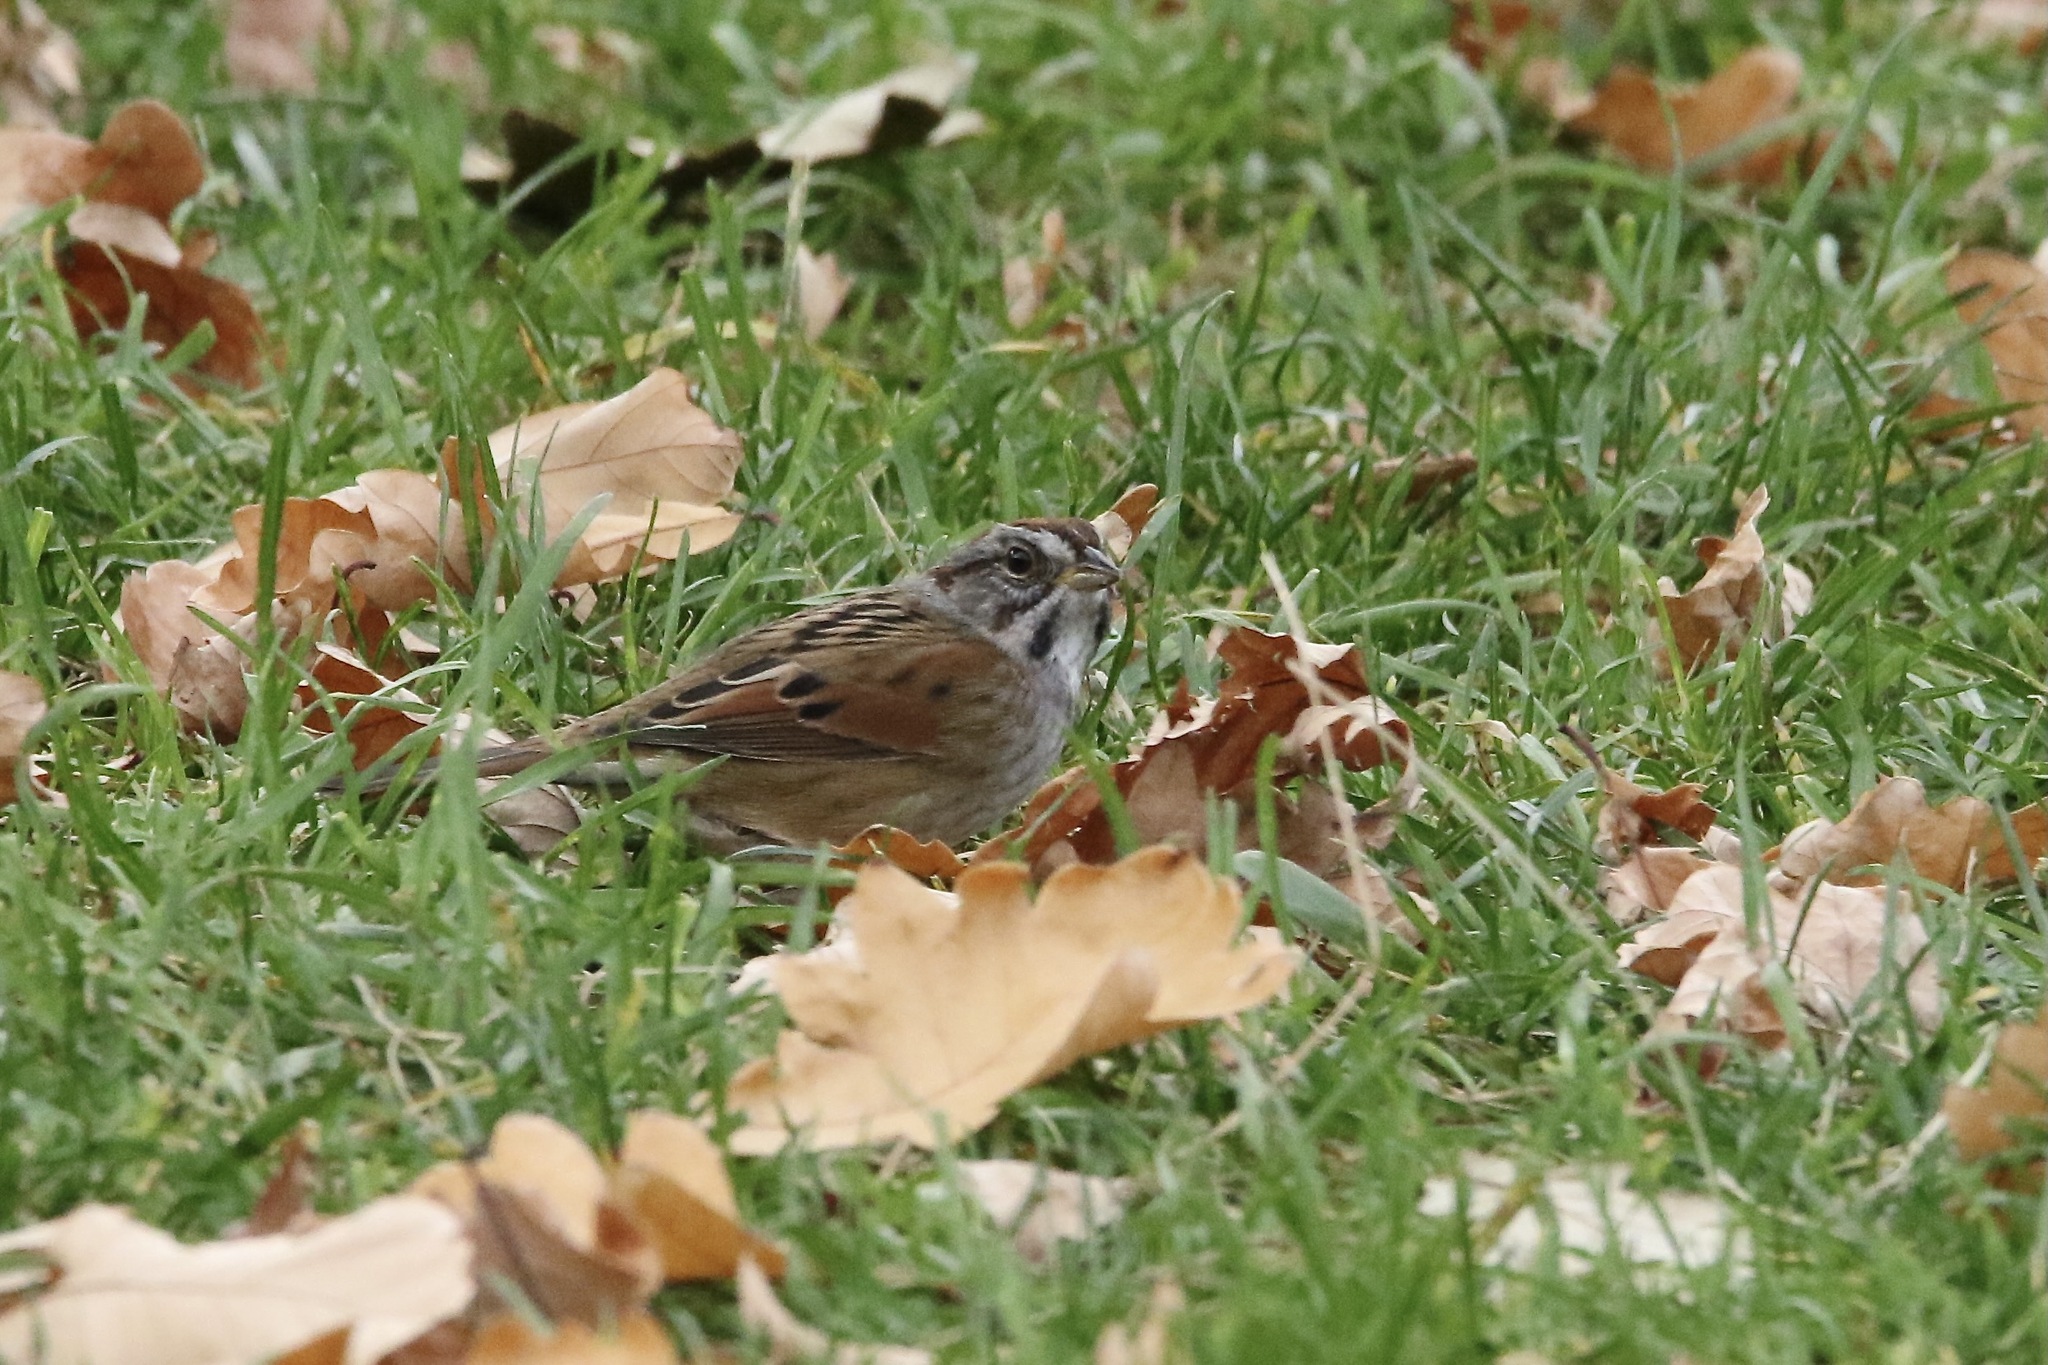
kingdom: Animalia
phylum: Chordata
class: Aves
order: Passeriformes
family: Passerellidae
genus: Melospiza
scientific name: Melospiza georgiana
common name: Swamp sparrow
